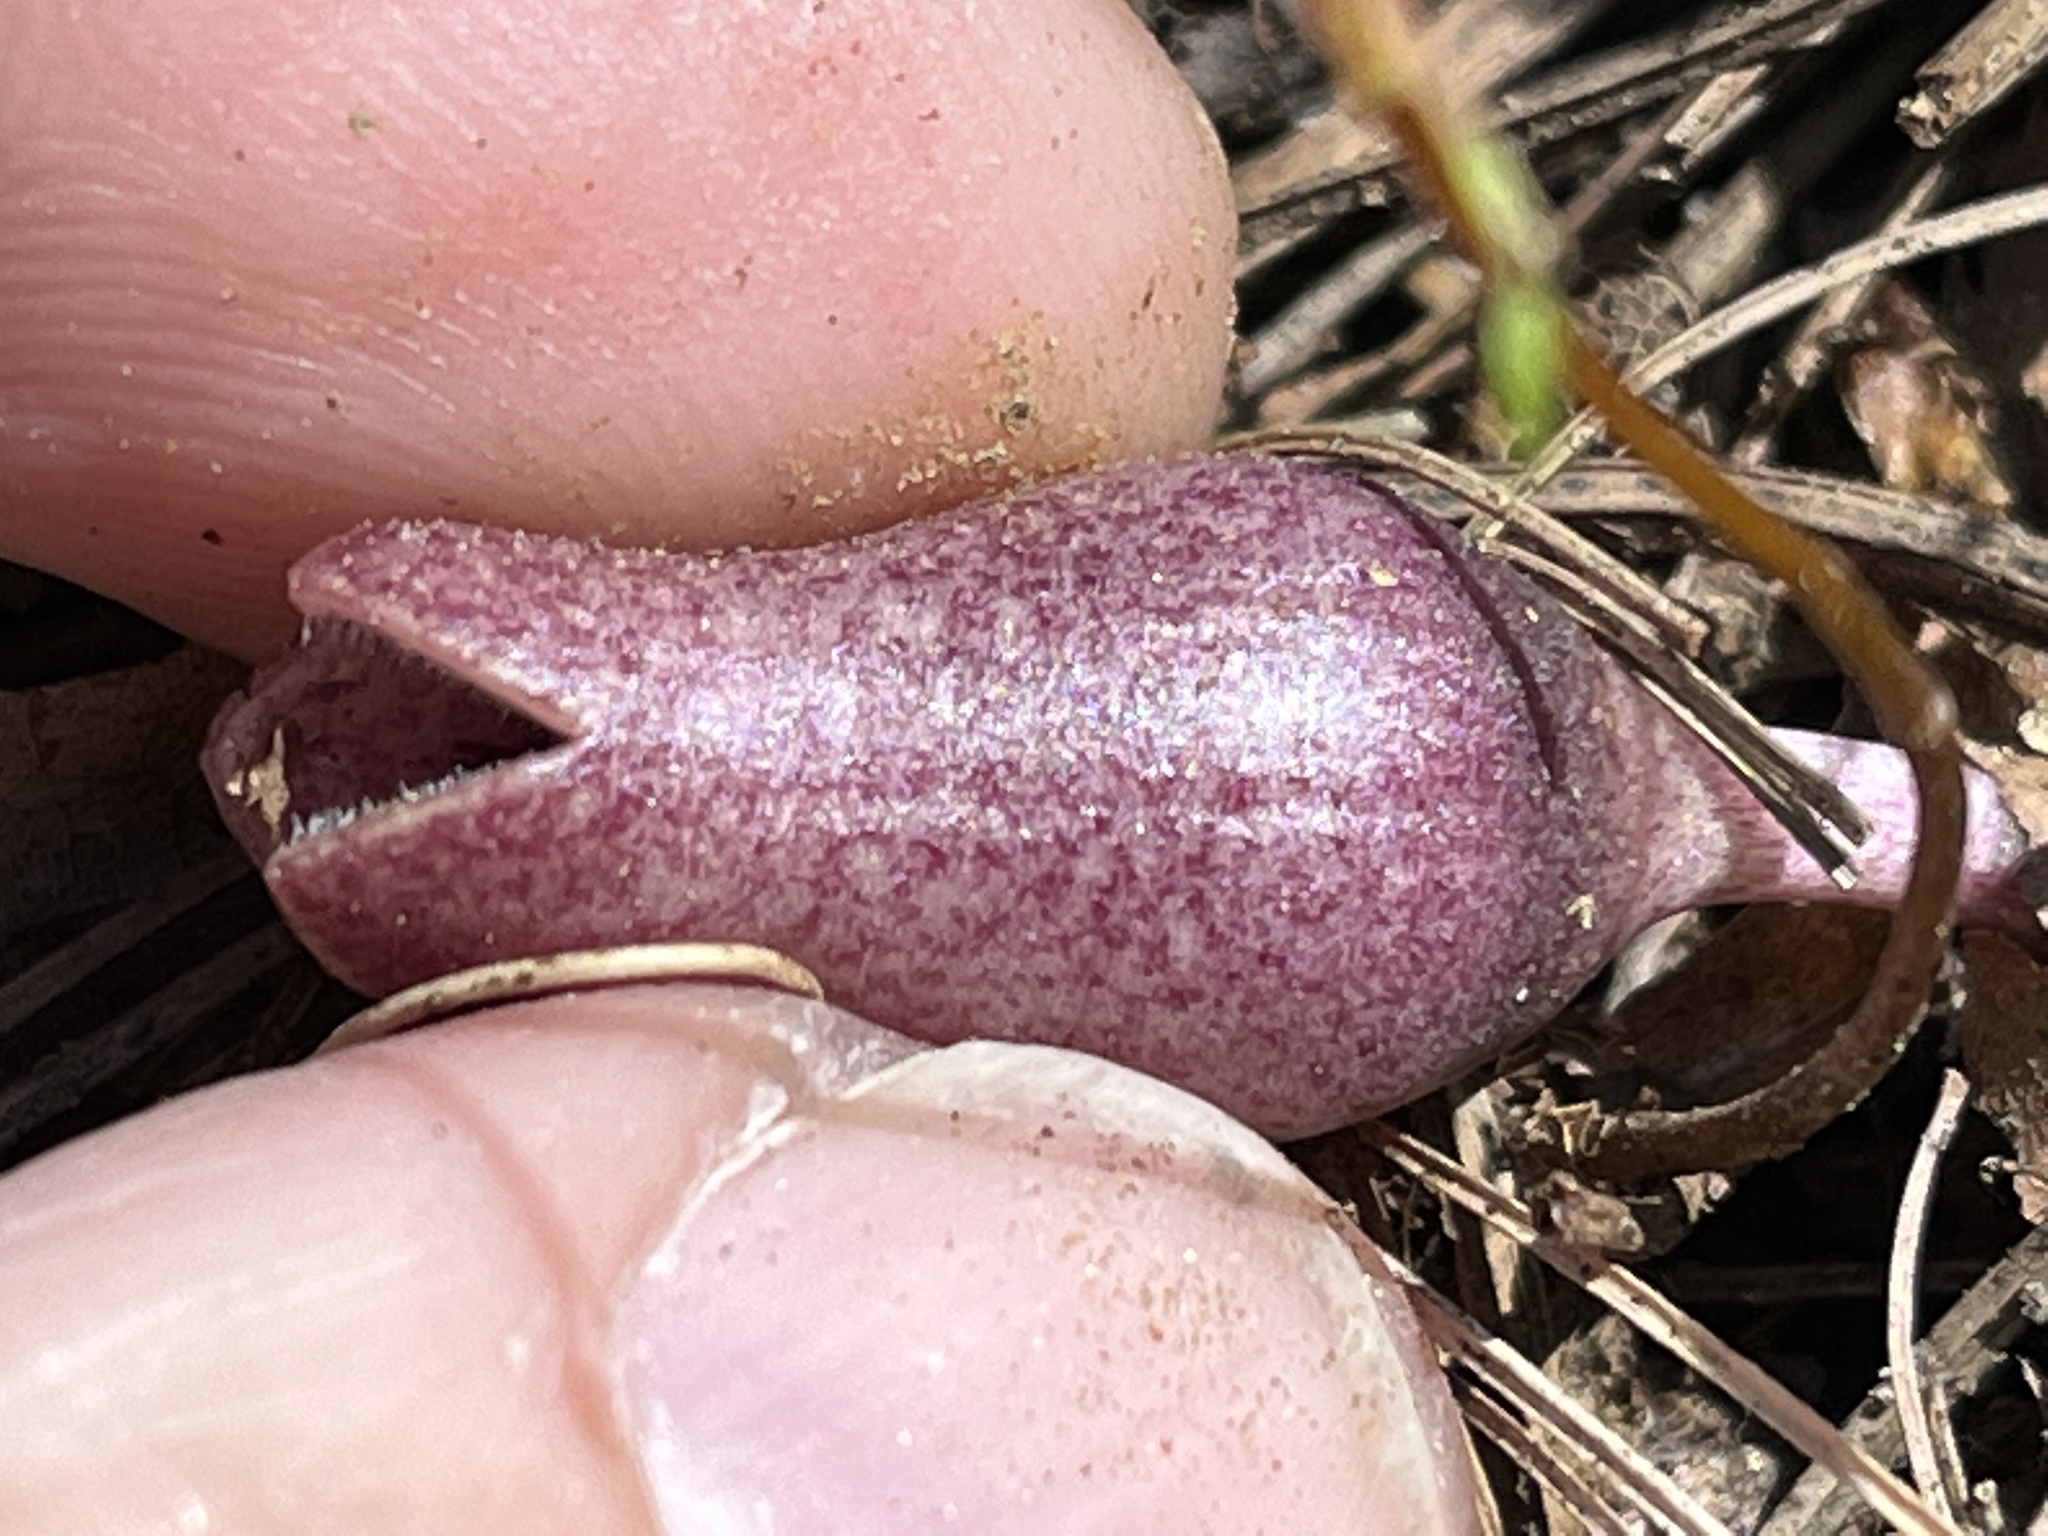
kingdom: Plantae
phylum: Tracheophyta
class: Magnoliopsida
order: Piperales
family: Aristolochiaceae
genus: Hexastylis
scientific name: Hexastylis arifolia
